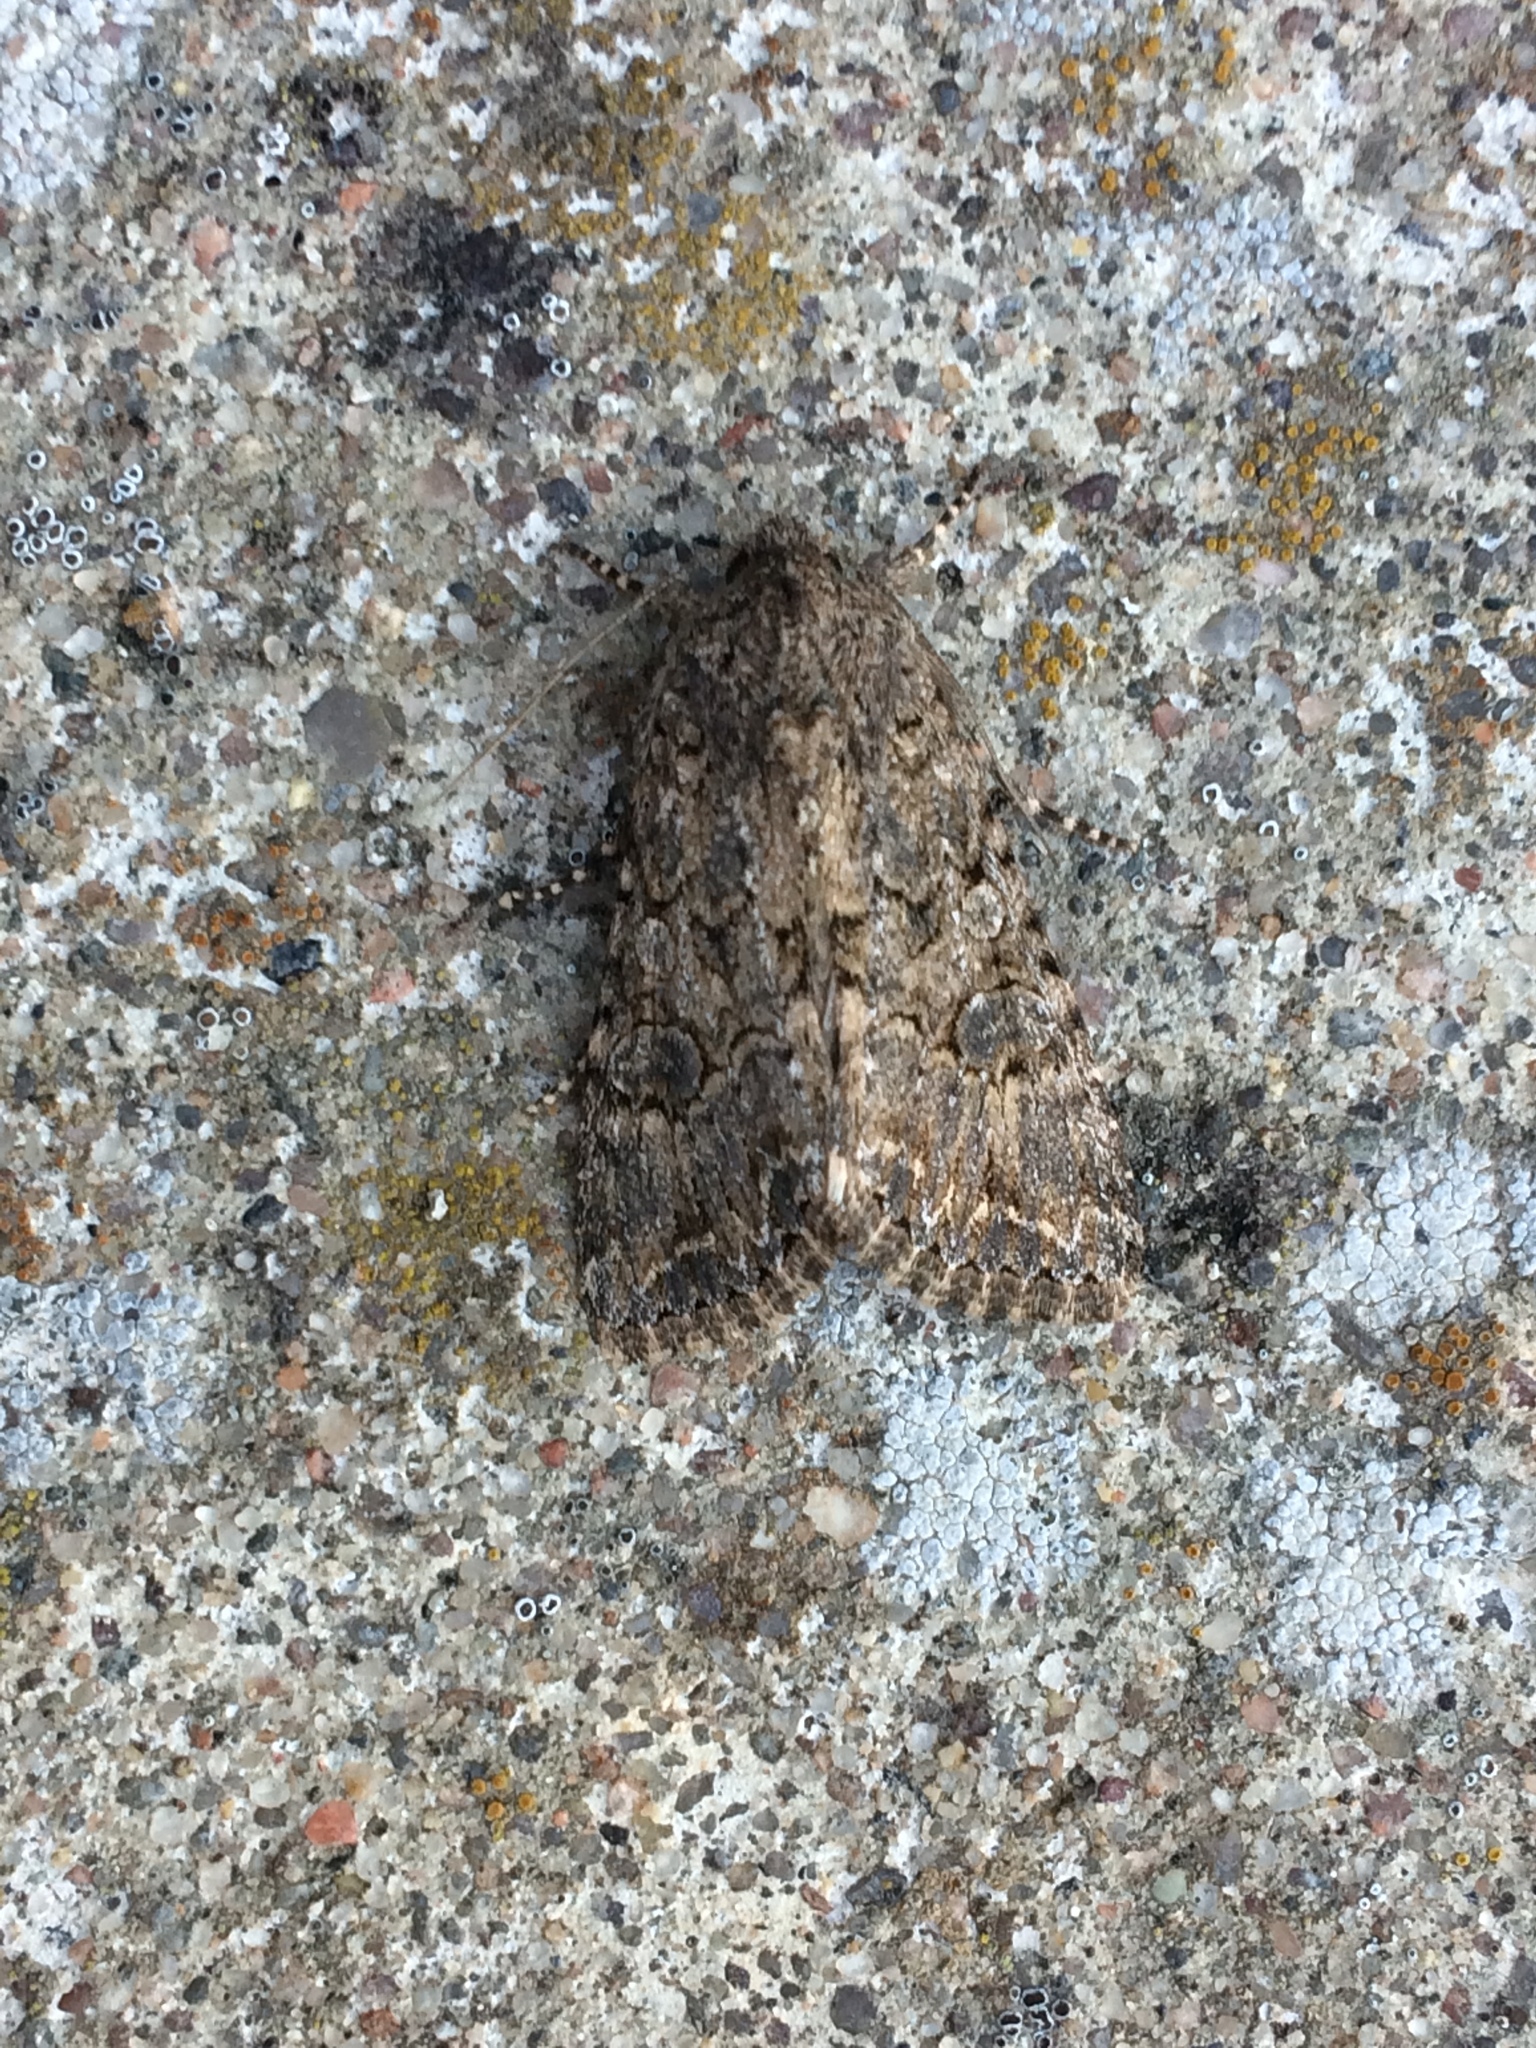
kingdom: Animalia
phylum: Arthropoda
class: Insecta
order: Lepidoptera
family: Noctuidae
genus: Anarta
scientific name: Anarta trifolii
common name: Clover cutworm moth
